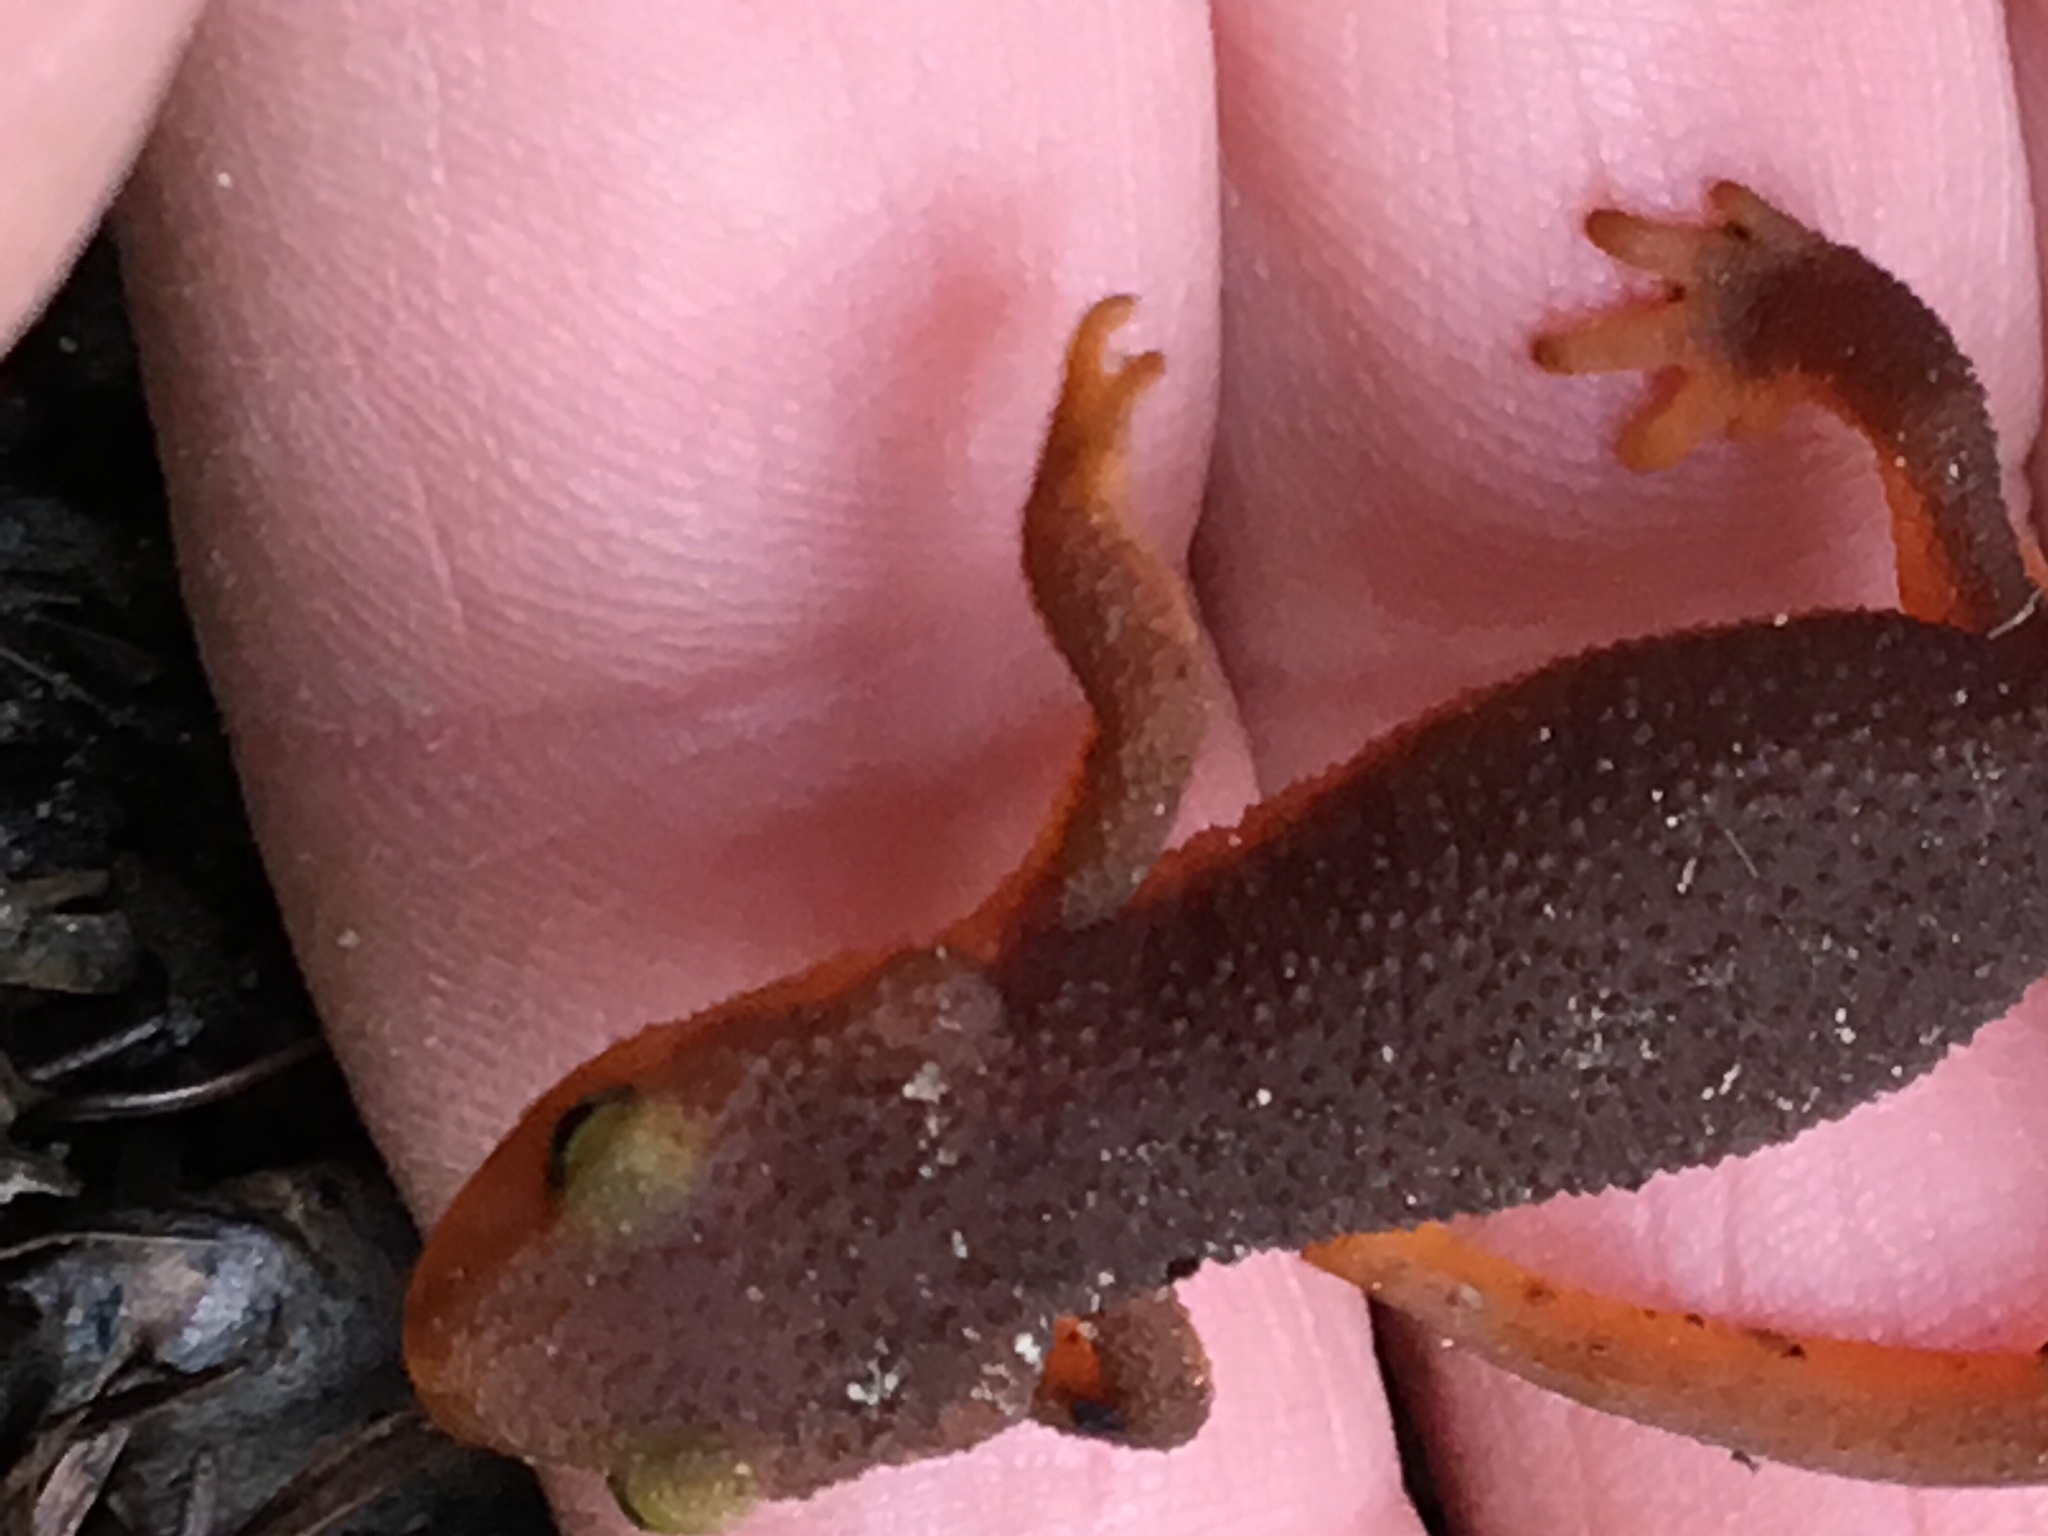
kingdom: Animalia
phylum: Chordata
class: Amphibia
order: Caudata
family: Salamandridae
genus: Taricha
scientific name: Taricha torosa
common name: California newt
